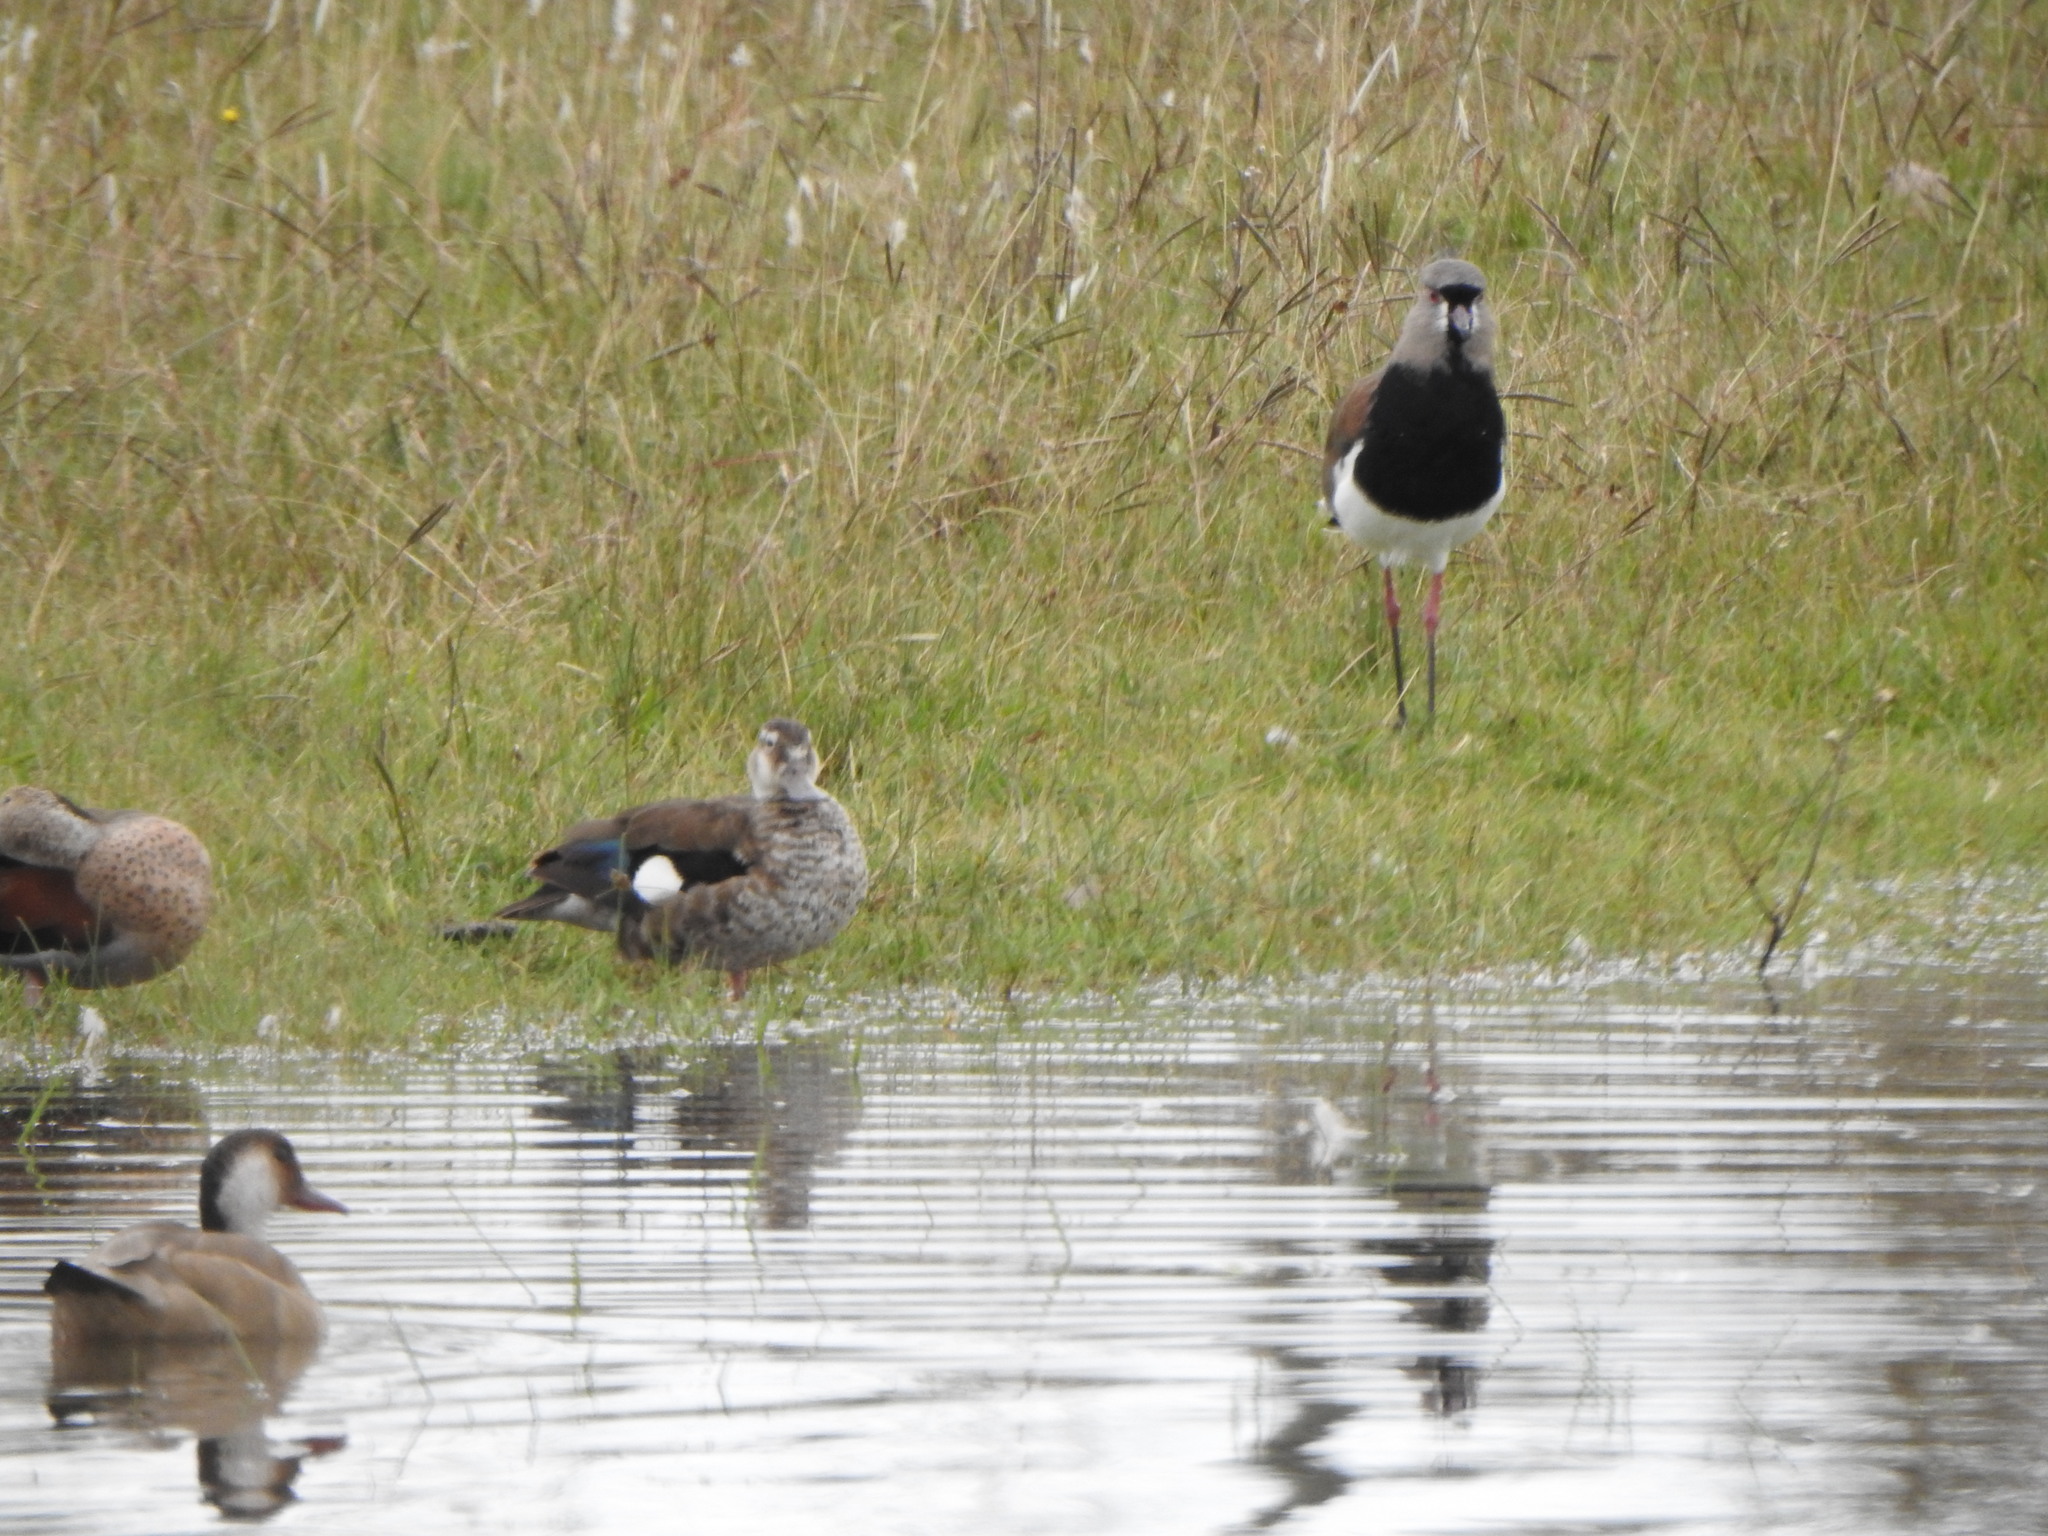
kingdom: Animalia
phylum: Chordata
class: Aves
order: Anseriformes
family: Anatidae
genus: Callonetta
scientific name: Callonetta leucophrys
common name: Ringed teal
